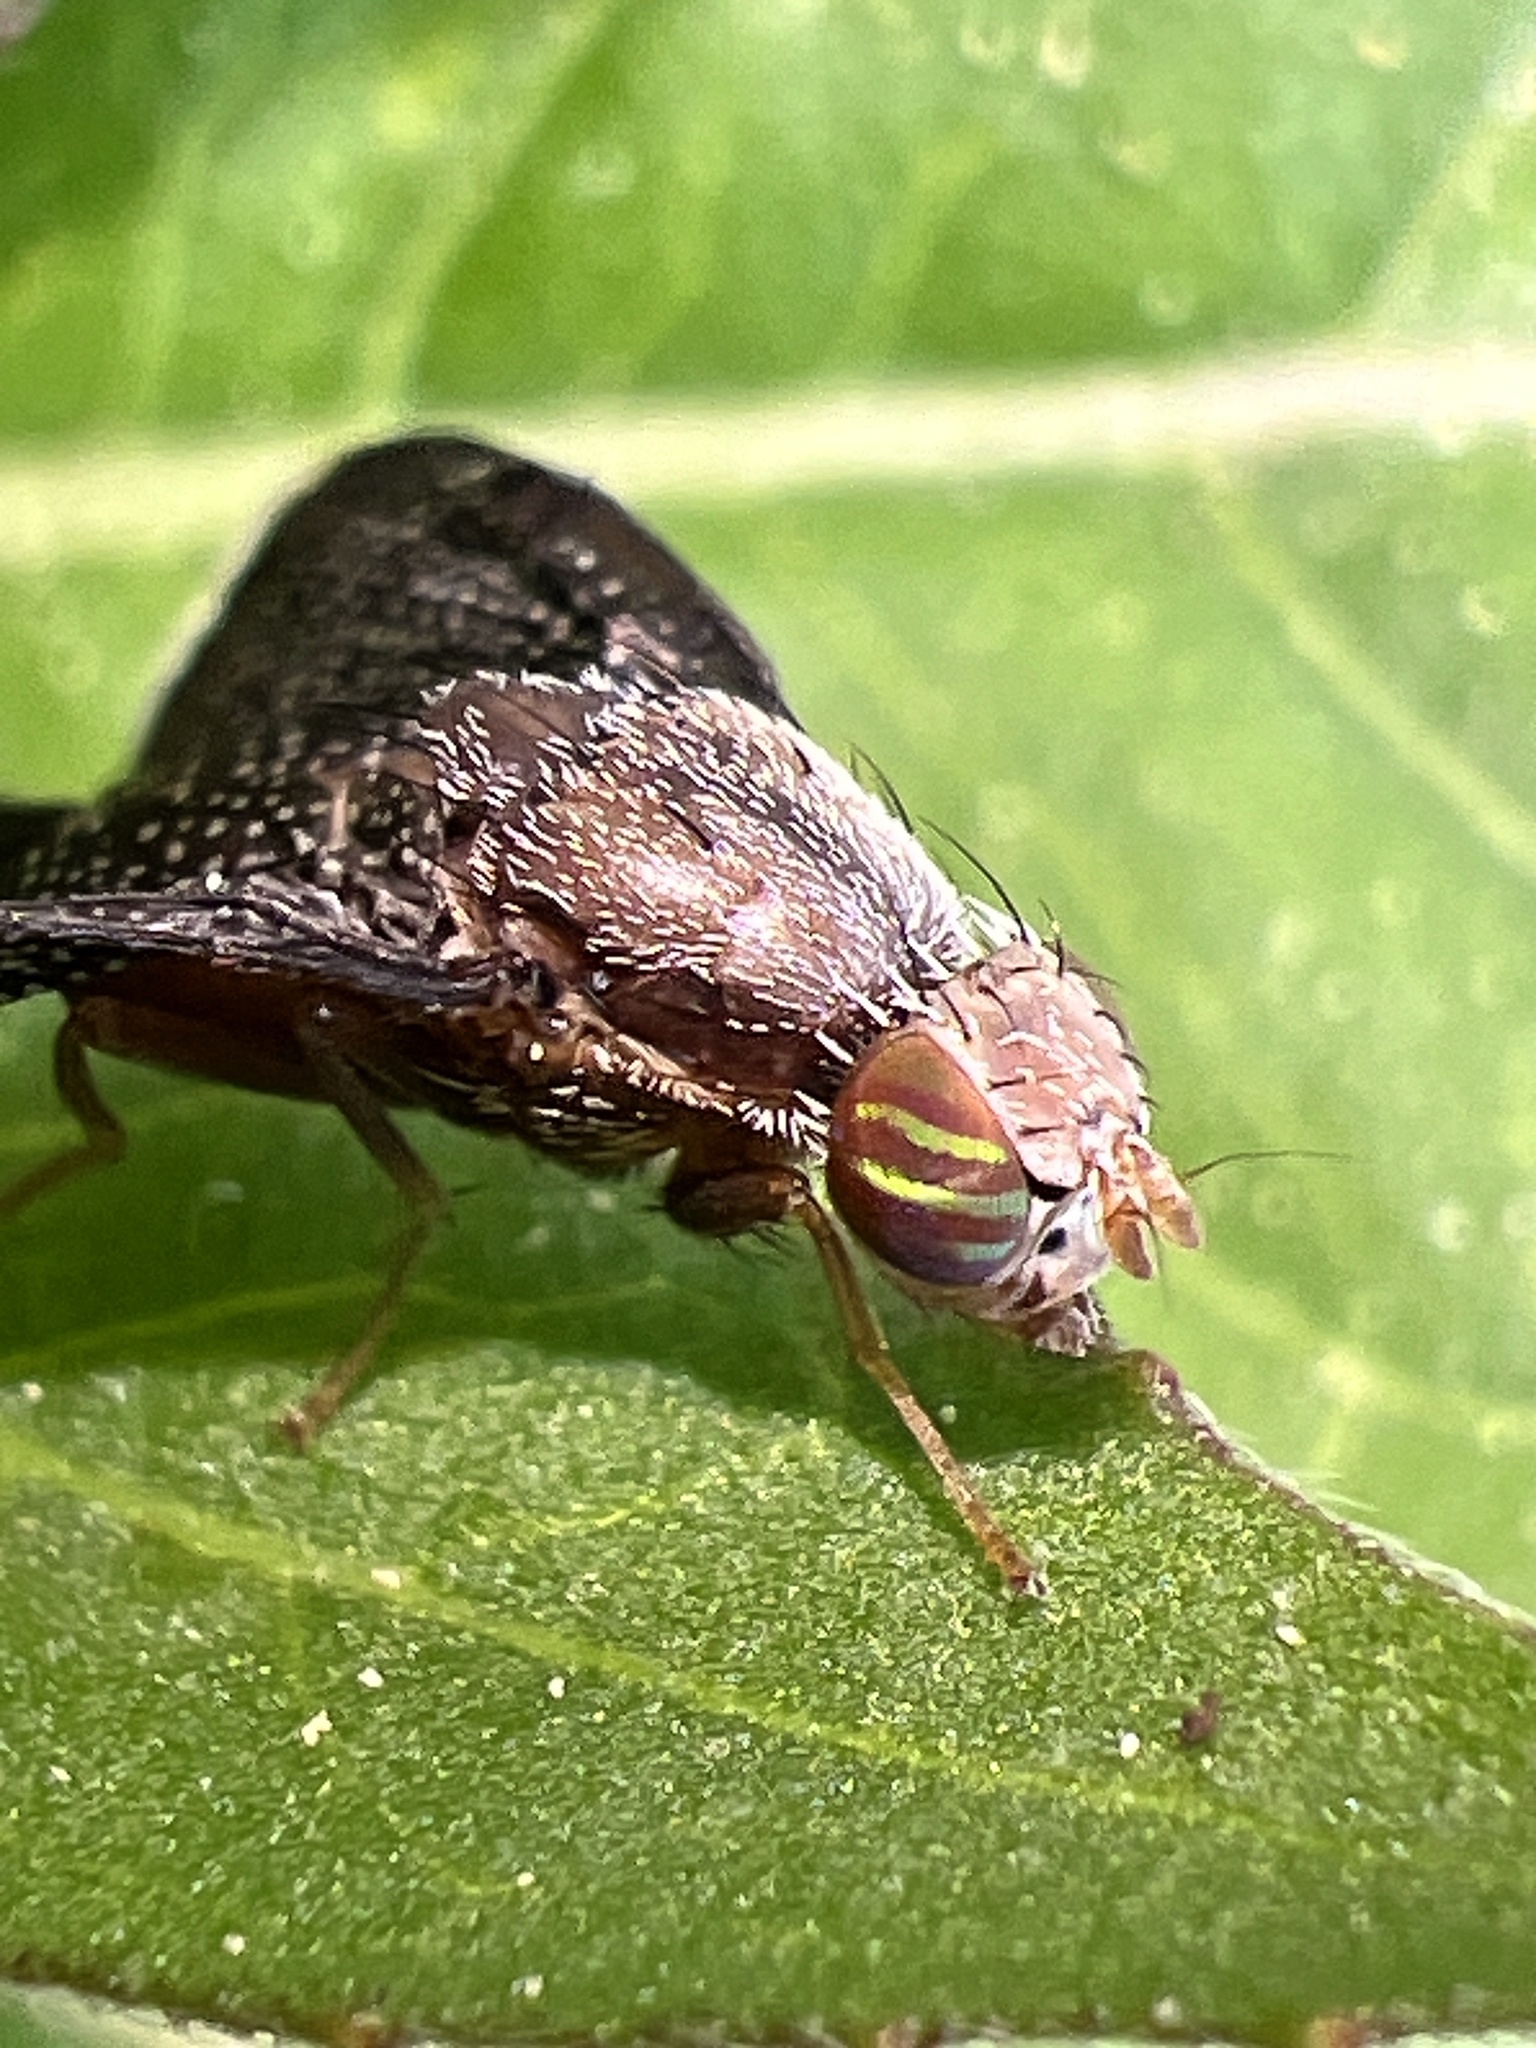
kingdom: Animalia
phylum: Arthropoda
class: Insecta
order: Diptera
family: Tephritidae
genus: Eutreta
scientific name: Eutreta novaeboracensis
